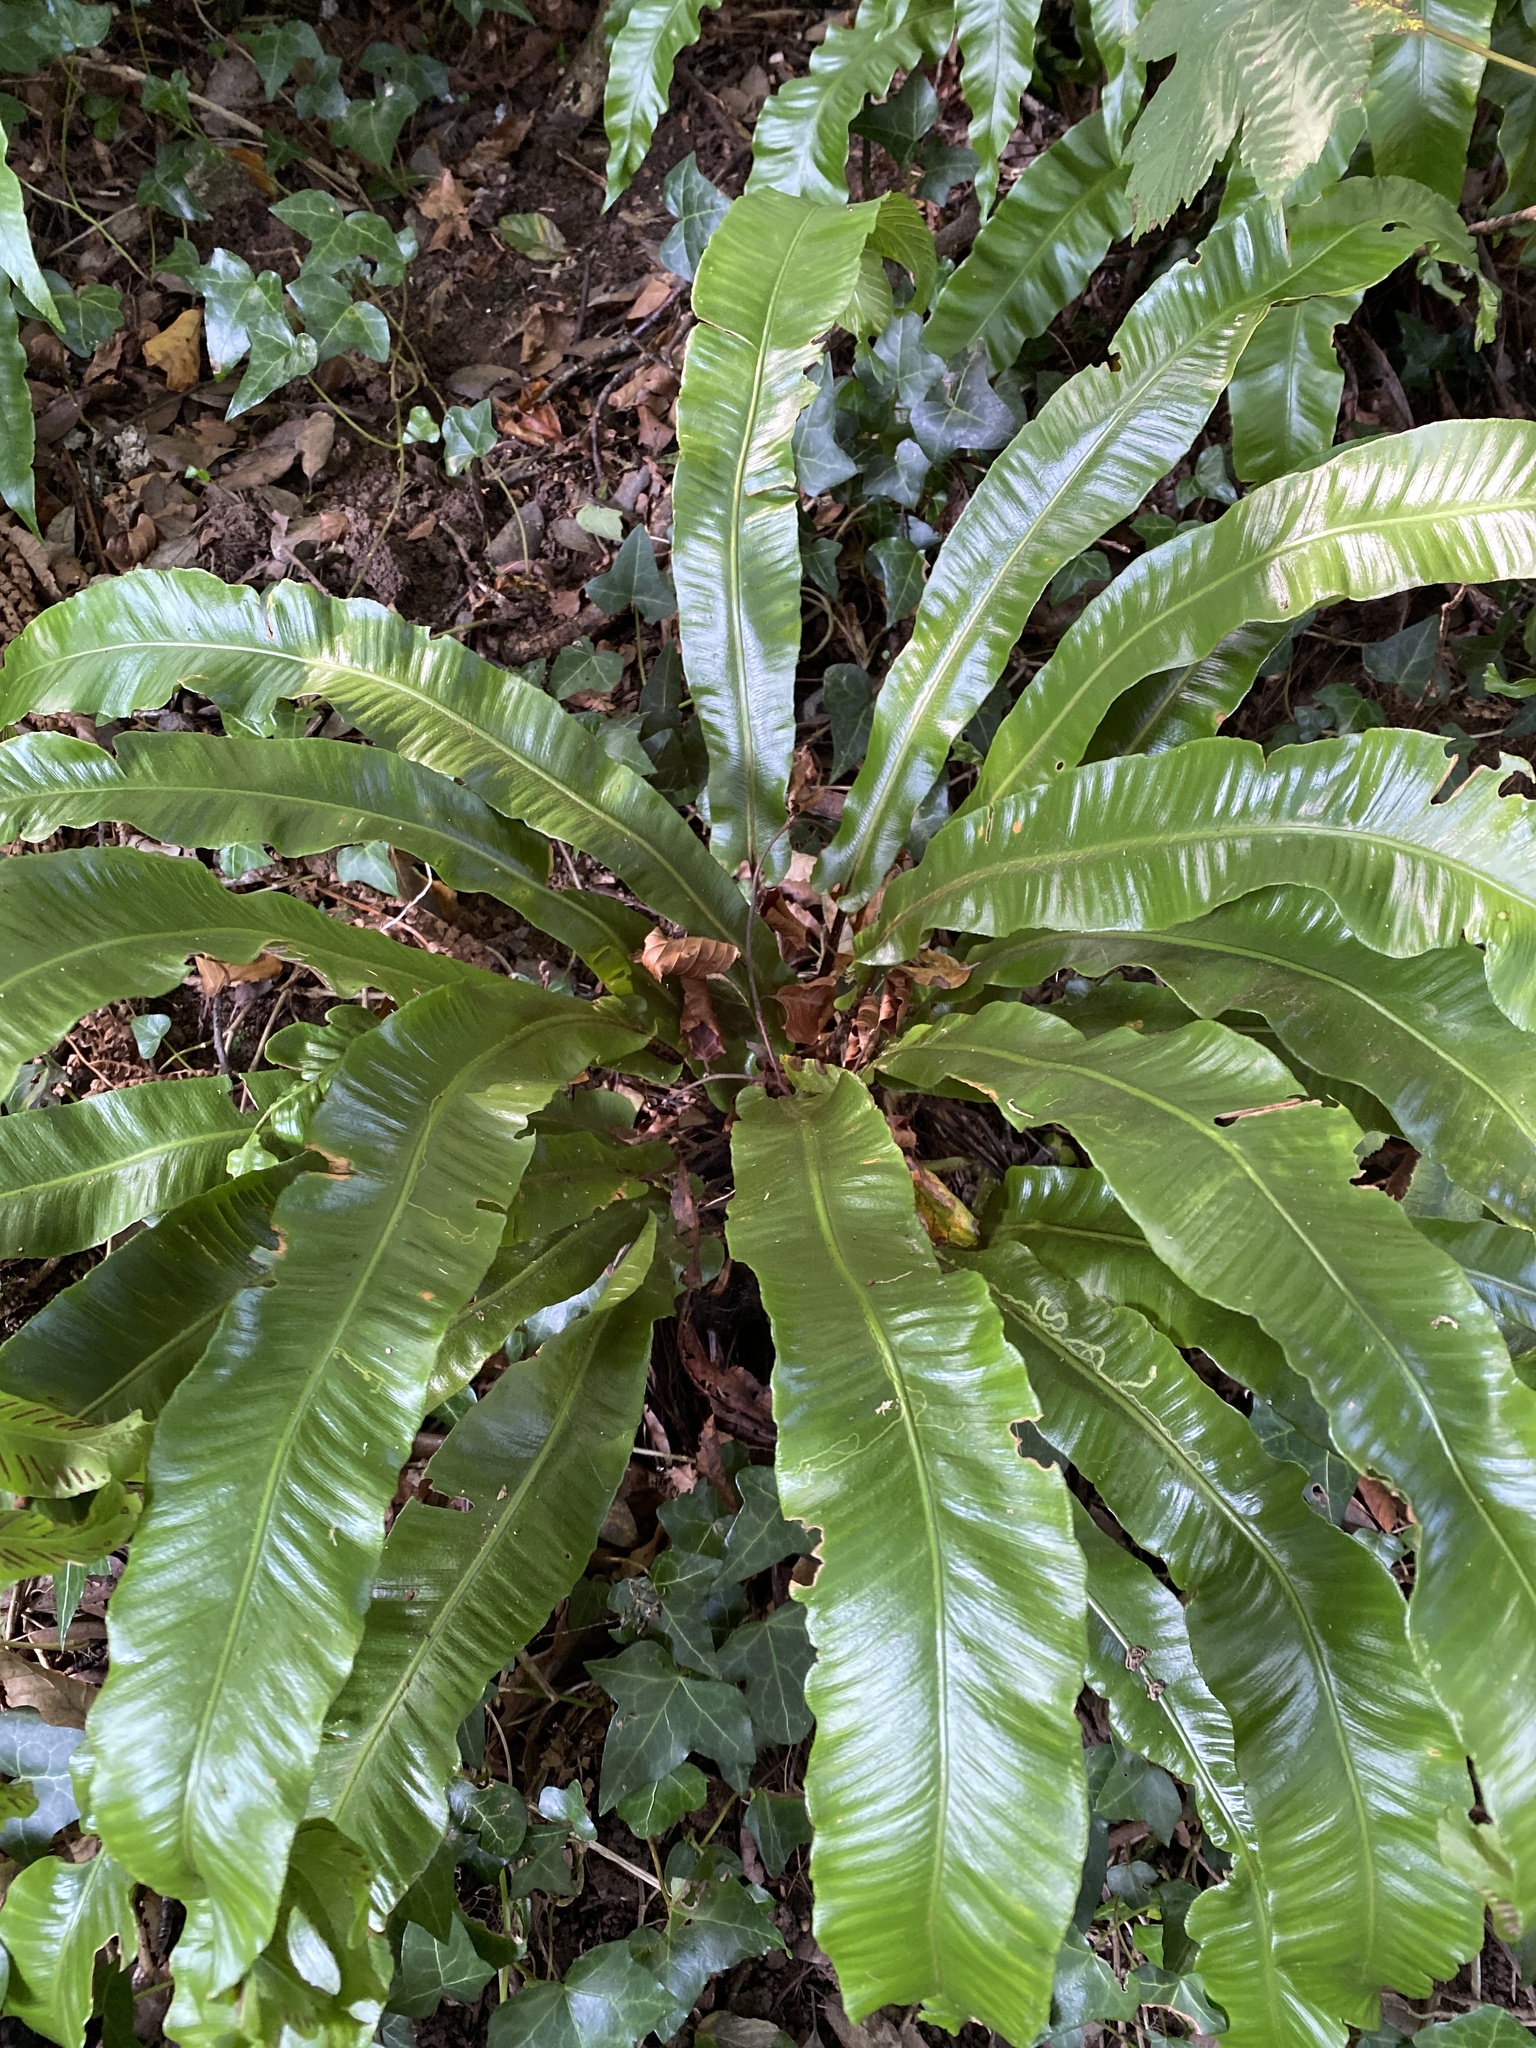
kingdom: Plantae
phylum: Tracheophyta
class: Polypodiopsida
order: Polypodiales
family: Aspleniaceae
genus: Asplenium
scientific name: Asplenium scolopendrium
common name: Hart's-tongue fern
